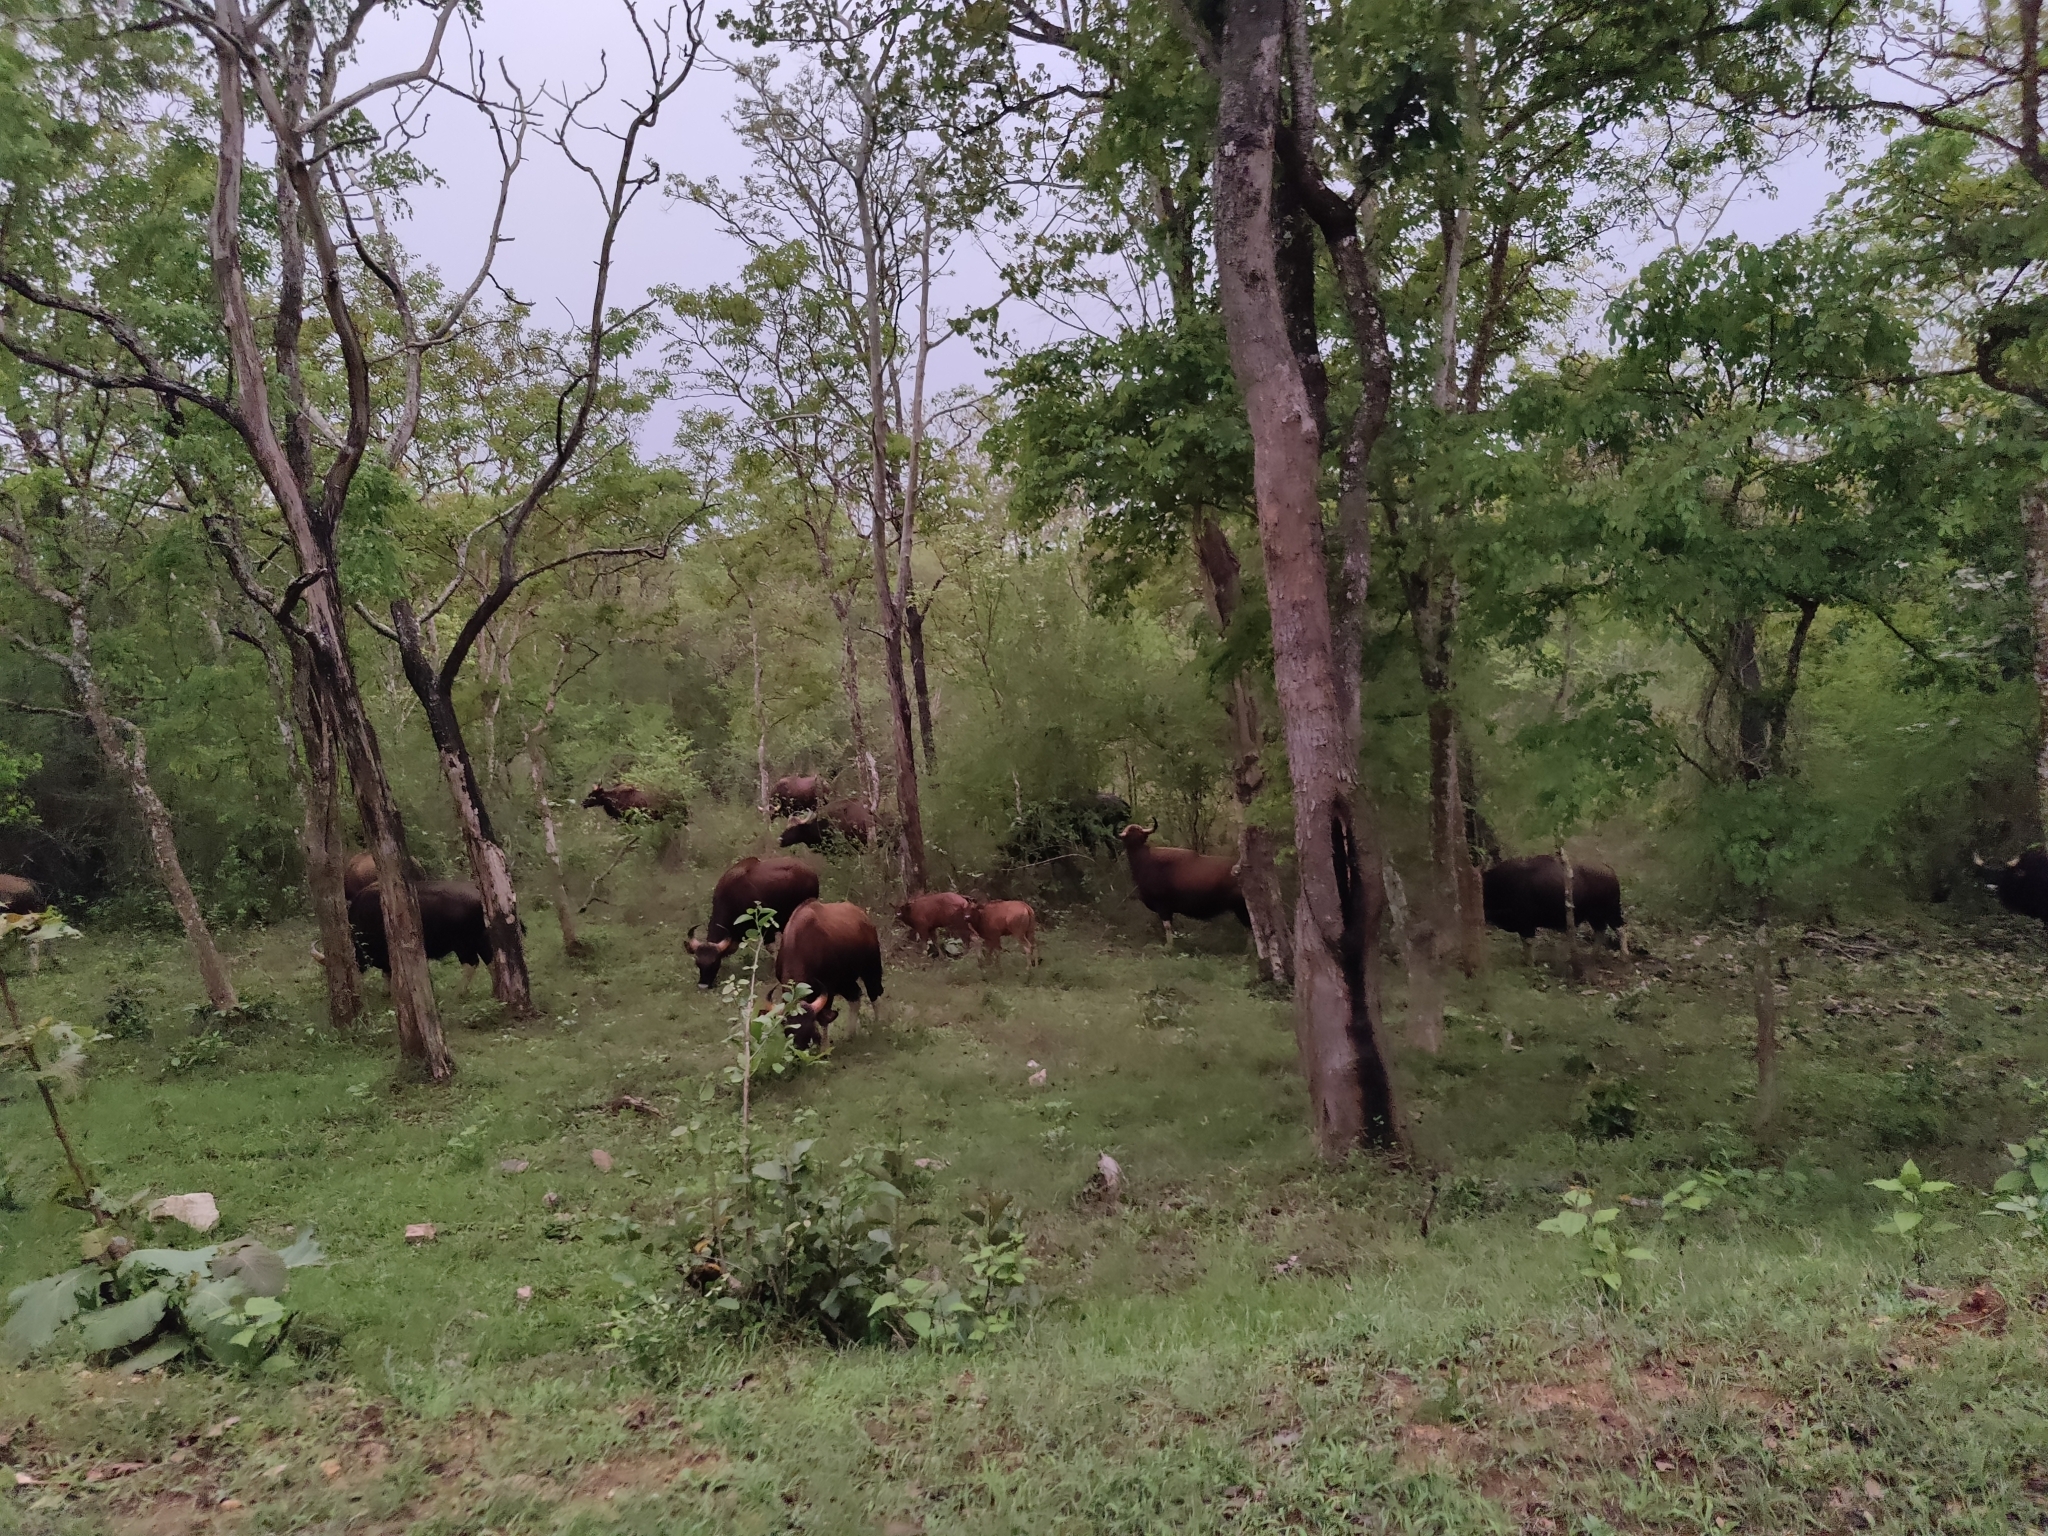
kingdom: Animalia
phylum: Chordata
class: Mammalia
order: Artiodactyla
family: Bovidae
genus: Bos
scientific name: Bos frontalis
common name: Gaur
